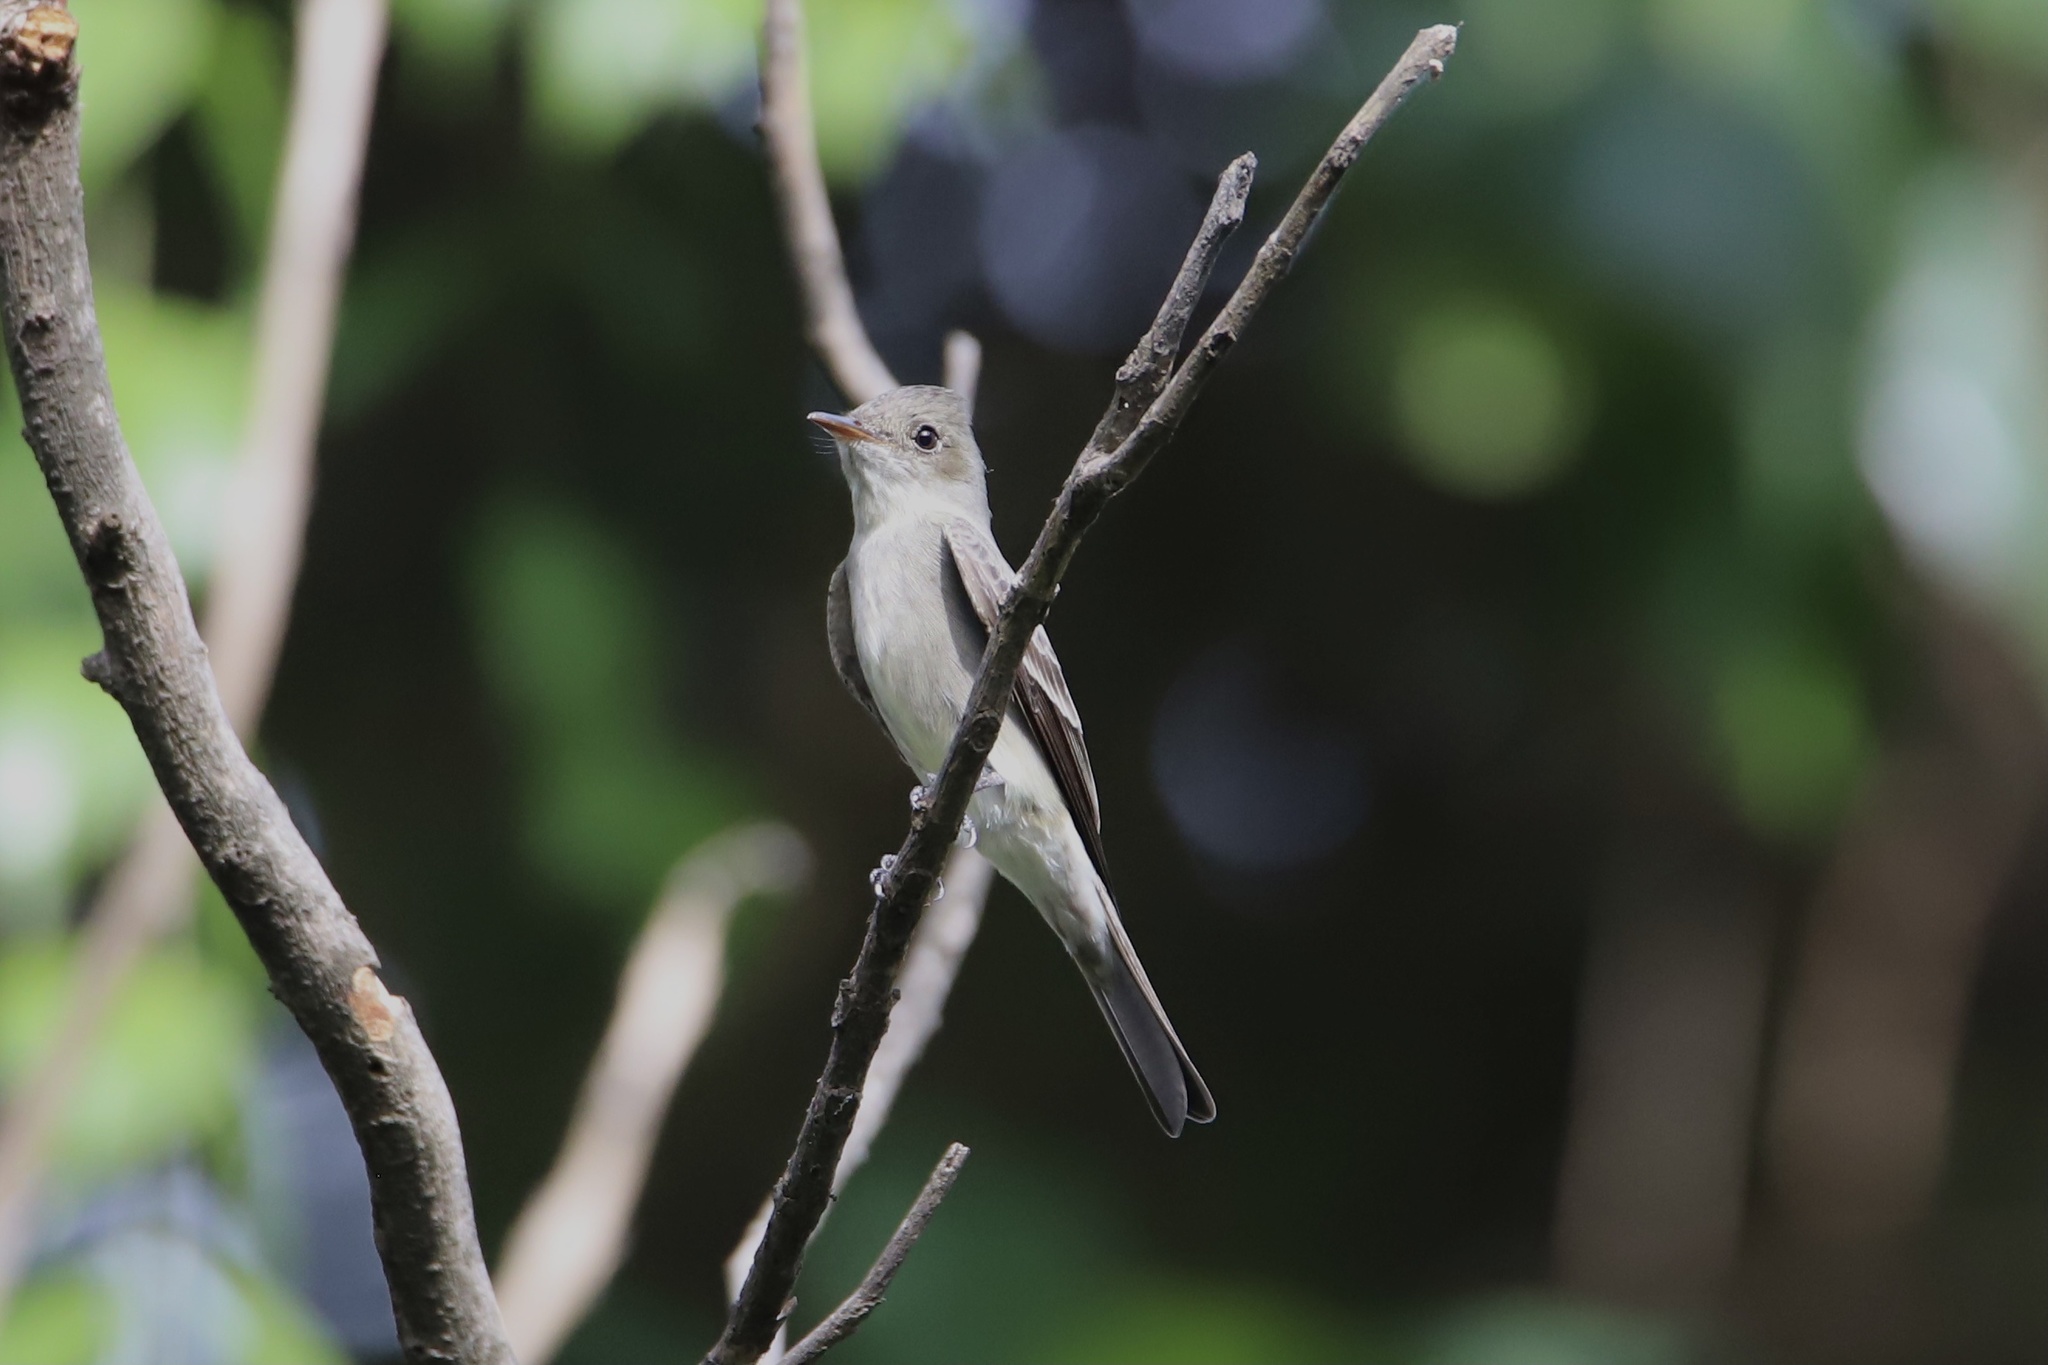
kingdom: Animalia
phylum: Chordata
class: Aves
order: Passeriformes
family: Tyrannidae
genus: Contopus
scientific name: Contopus virens
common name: Eastern wood-pewee
